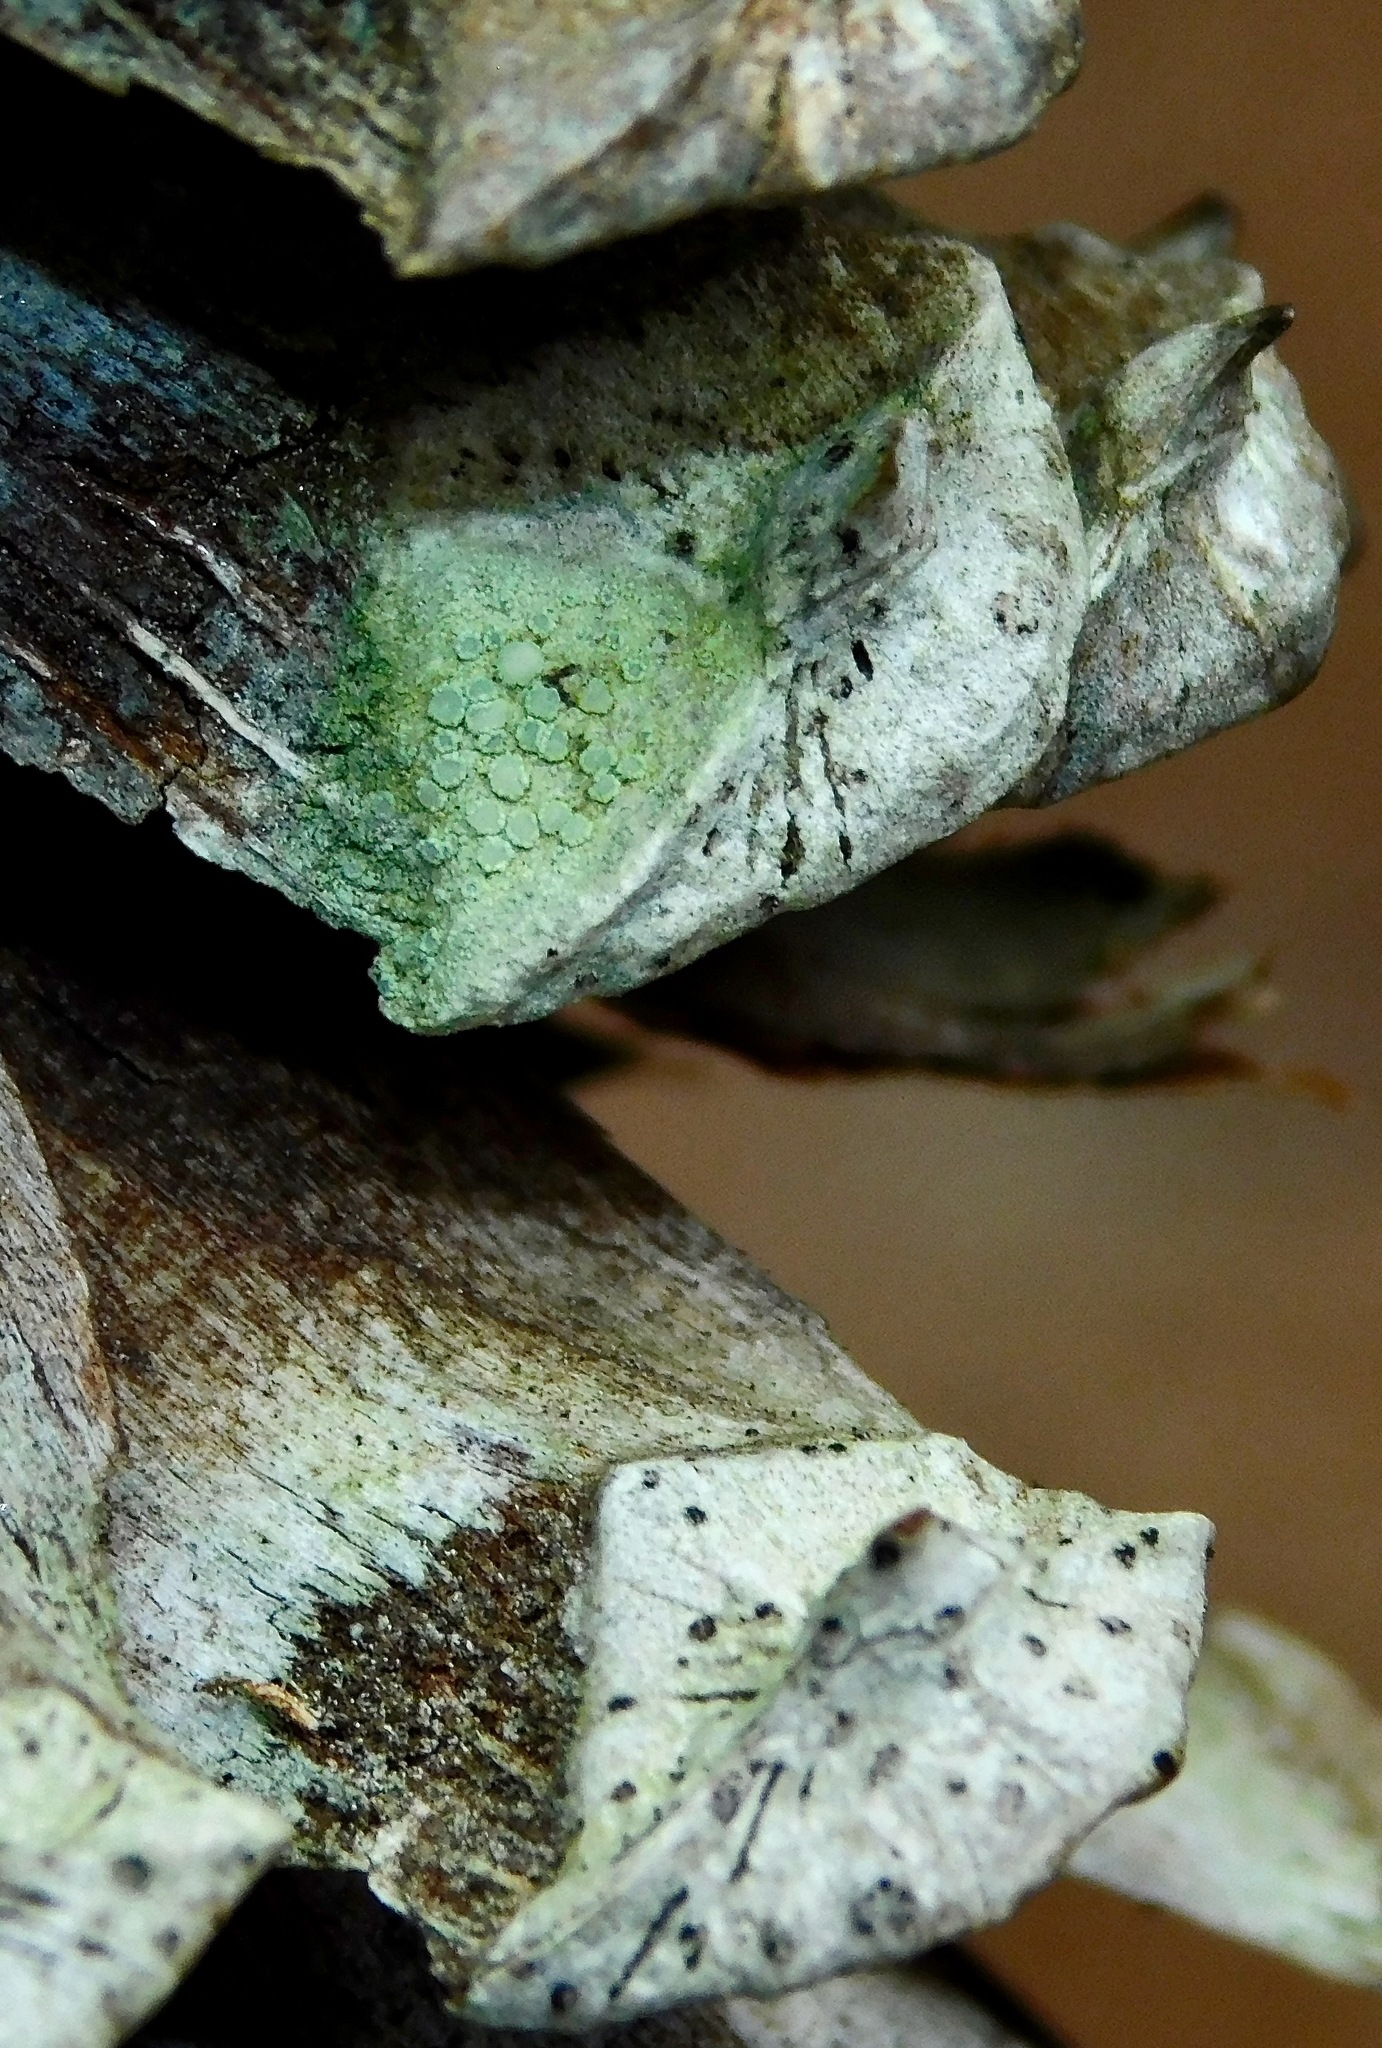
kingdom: Fungi
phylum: Ascomycota
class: Lecanoromycetes
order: Lecanorales
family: Lecanoraceae
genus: Lecanora
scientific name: Lecanora strobilina
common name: Mealy rim-lichen
